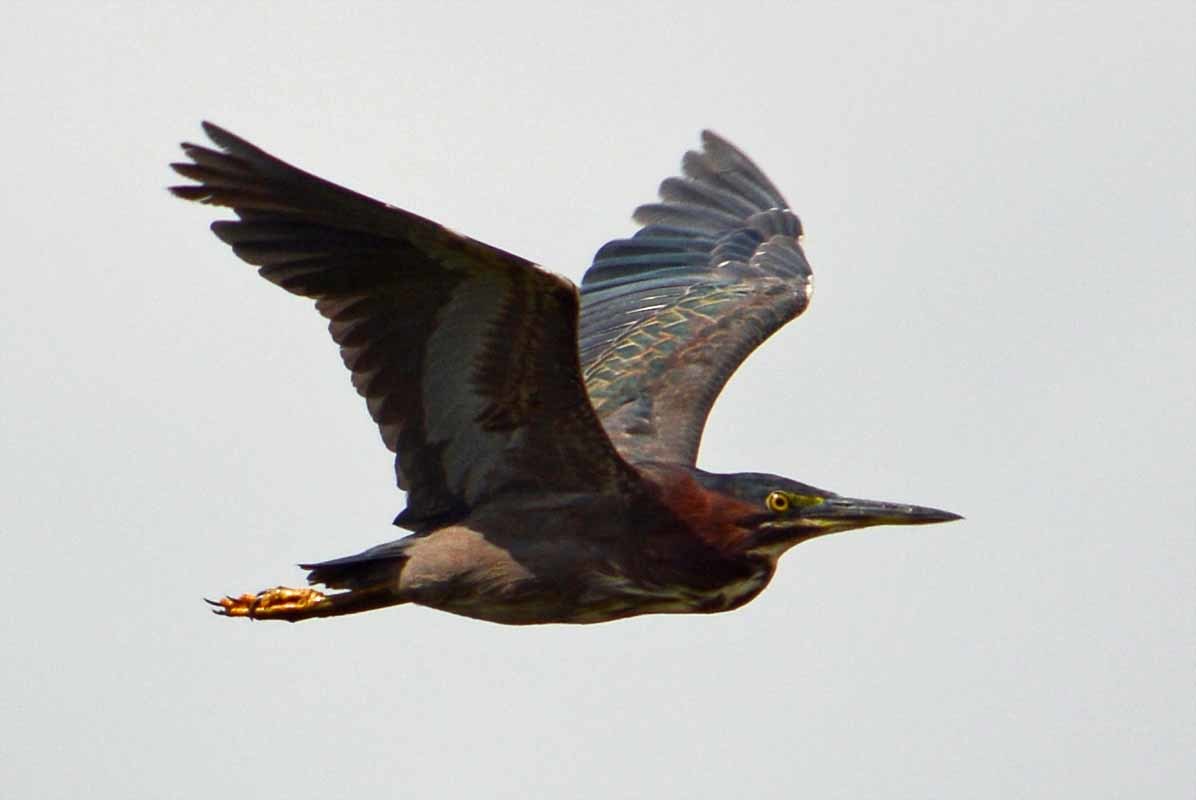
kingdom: Animalia
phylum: Chordata
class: Aves
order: Pelecaniformes
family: Ardeidae
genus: Butorides
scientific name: Butorides virescens
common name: Green heron
